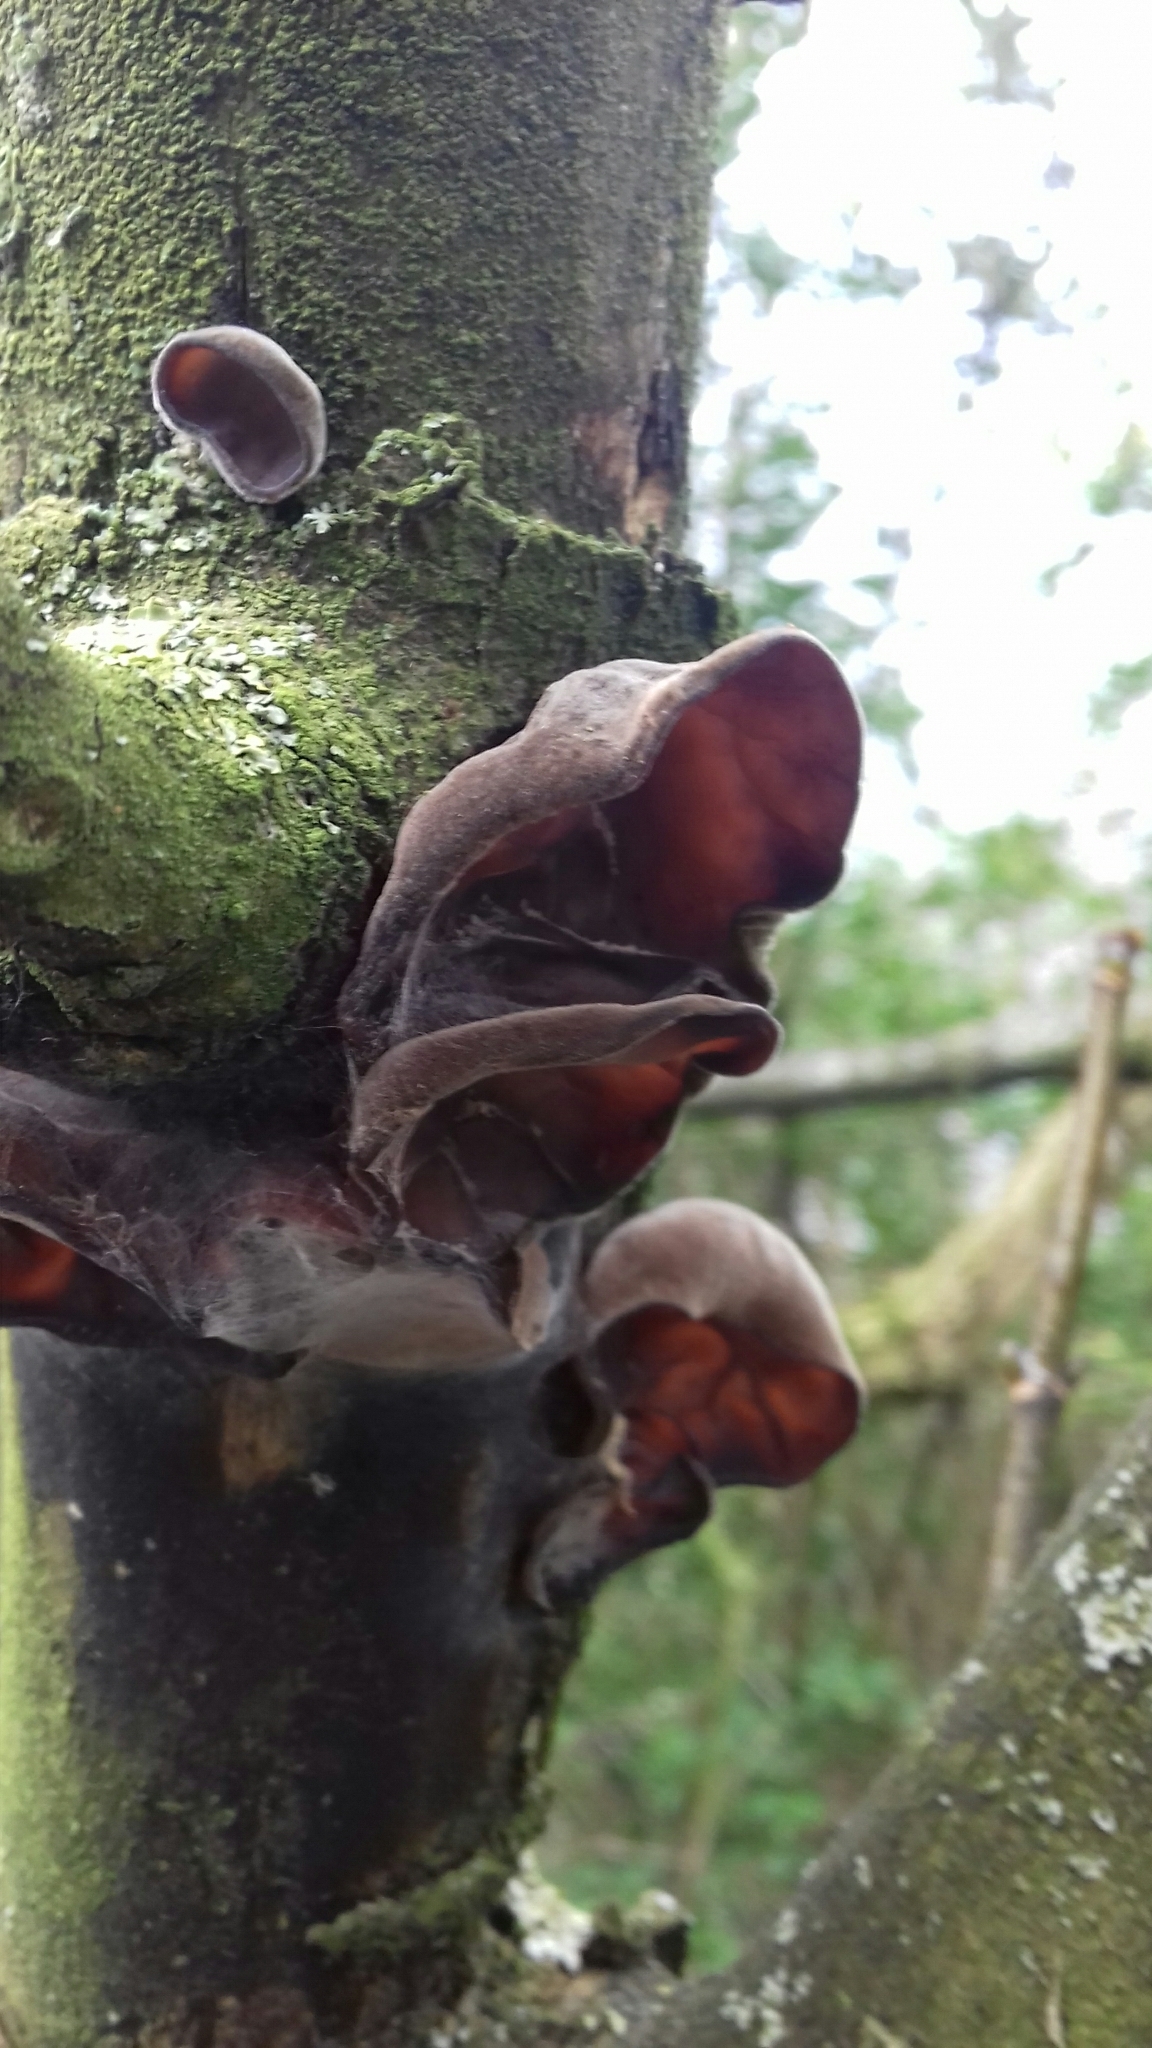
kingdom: Fungi
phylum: Basidiomycota
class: Agaricomycetes
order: Auriculariales
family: Auriculariaceae
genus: Auricularia
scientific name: Auricularia auricula-judae
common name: Jelly ear
